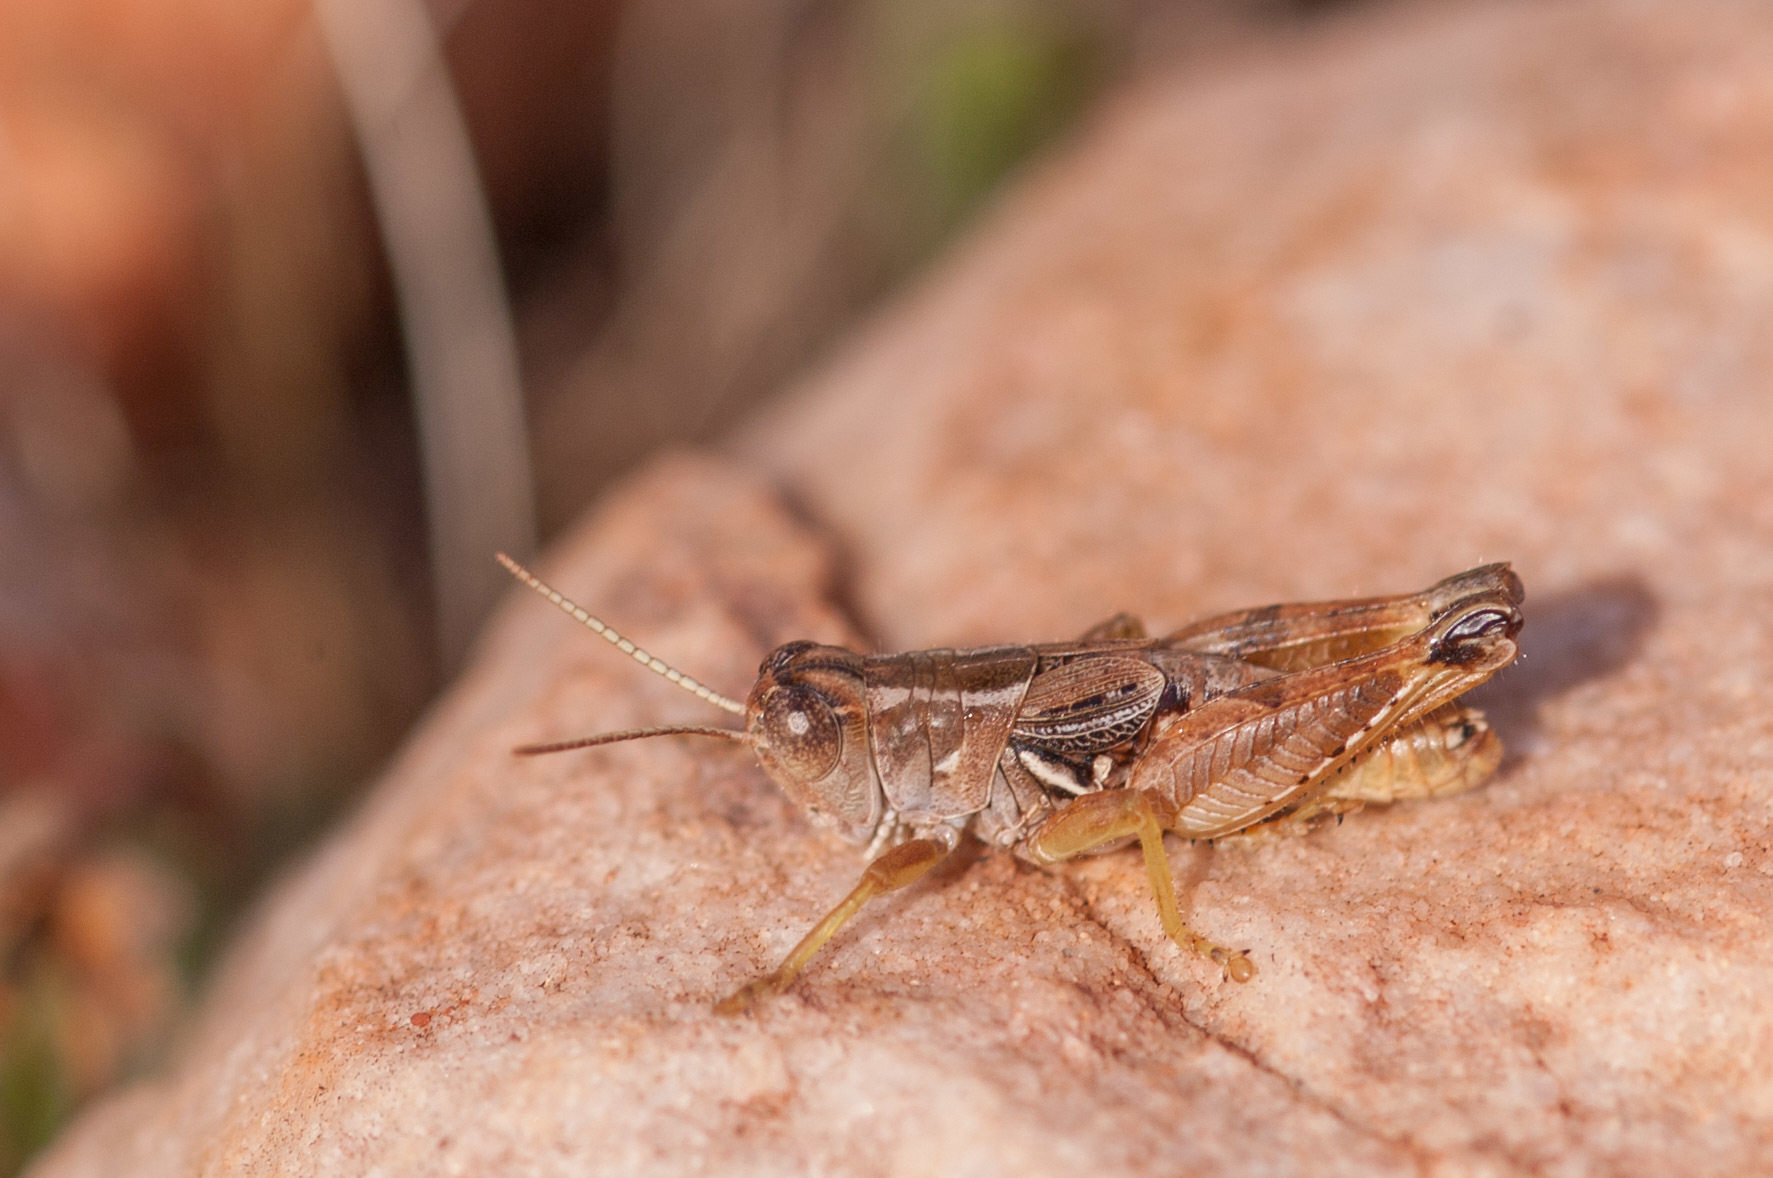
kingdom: Animalia
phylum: Arthropoda
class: Insecta
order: Orthoptera
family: Acrididae
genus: Brachyexarna
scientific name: Brachyexarna lobipennis
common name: Stripe-winged meadow grasshopper
